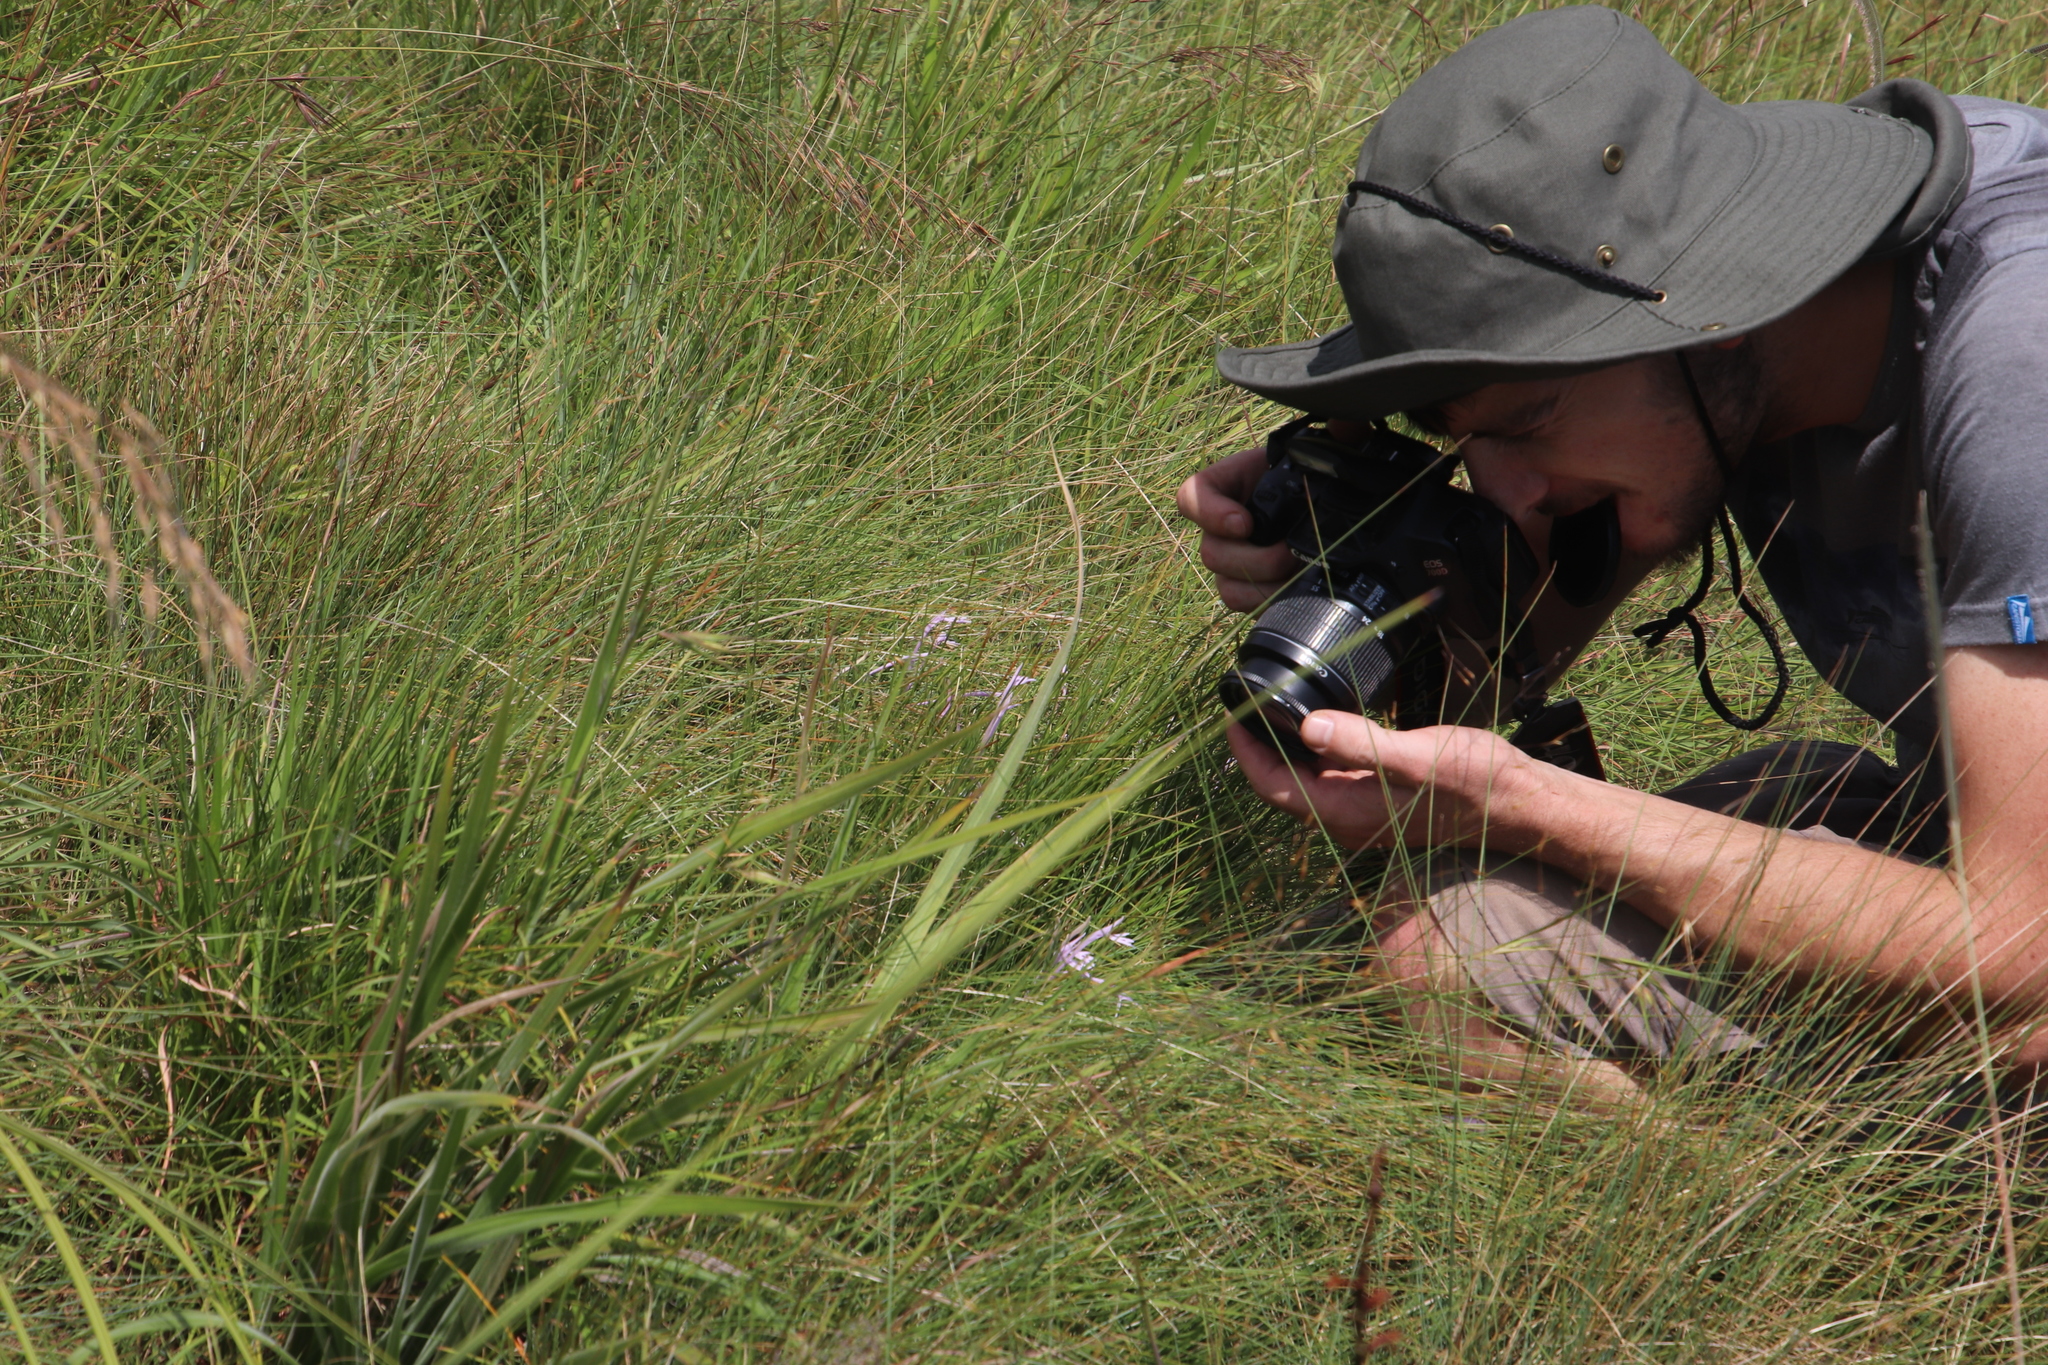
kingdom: Plantae
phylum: Tracheophyta
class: Magnoliopsida
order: Lamiales
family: Acanthaceae
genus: Justicia
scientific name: Justicia linifolia
